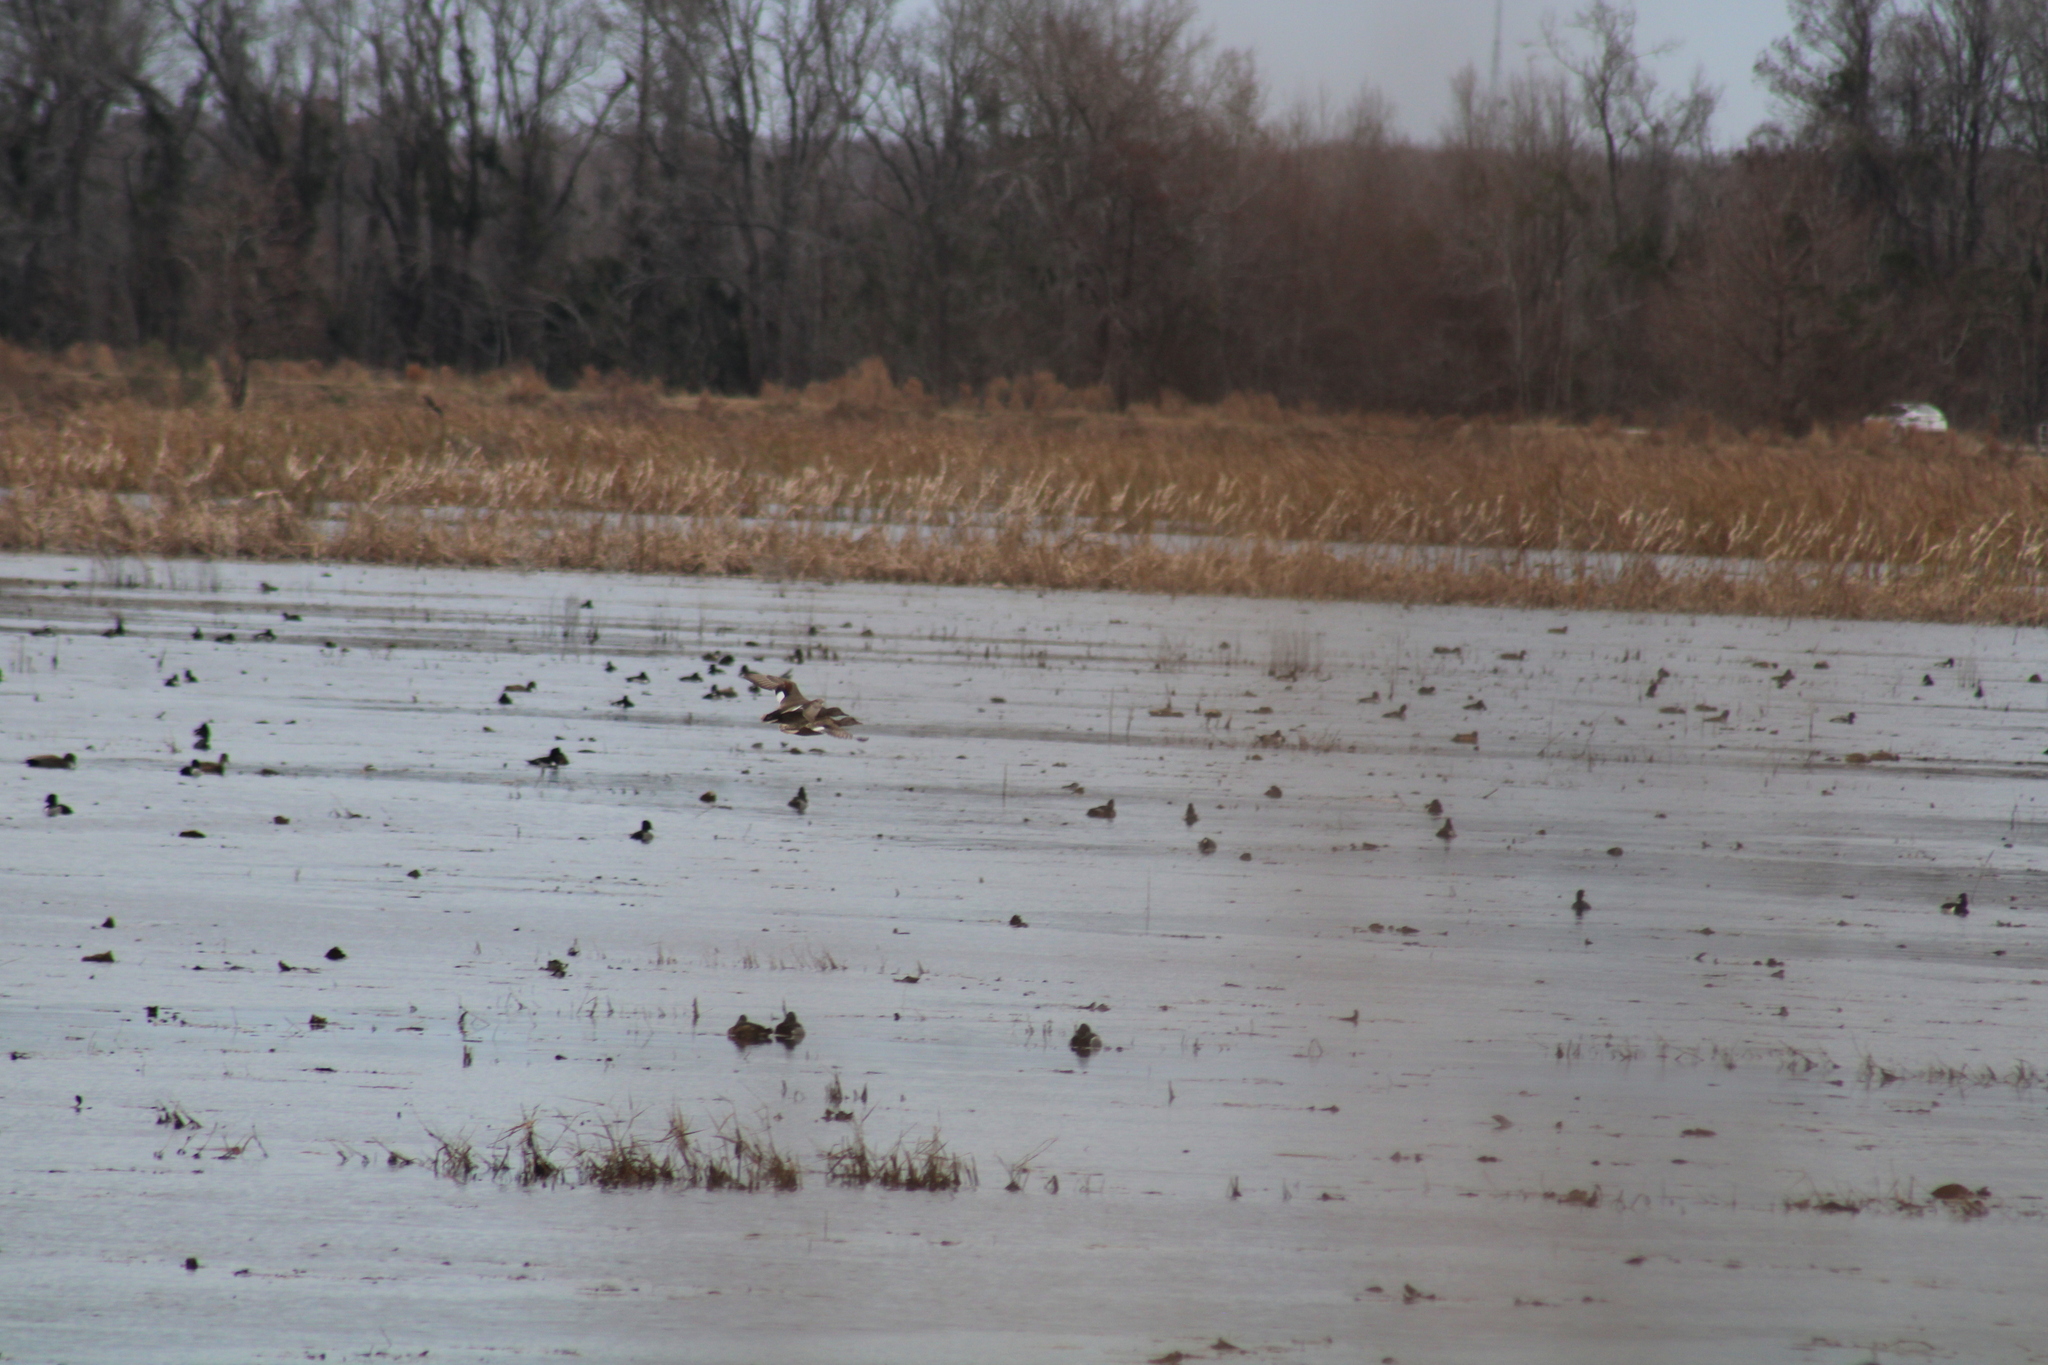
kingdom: Animalia
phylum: Chordata
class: Aves
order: Anseriformes
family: Anatidae
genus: Mareca
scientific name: Mareca strepera
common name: Gadwall
